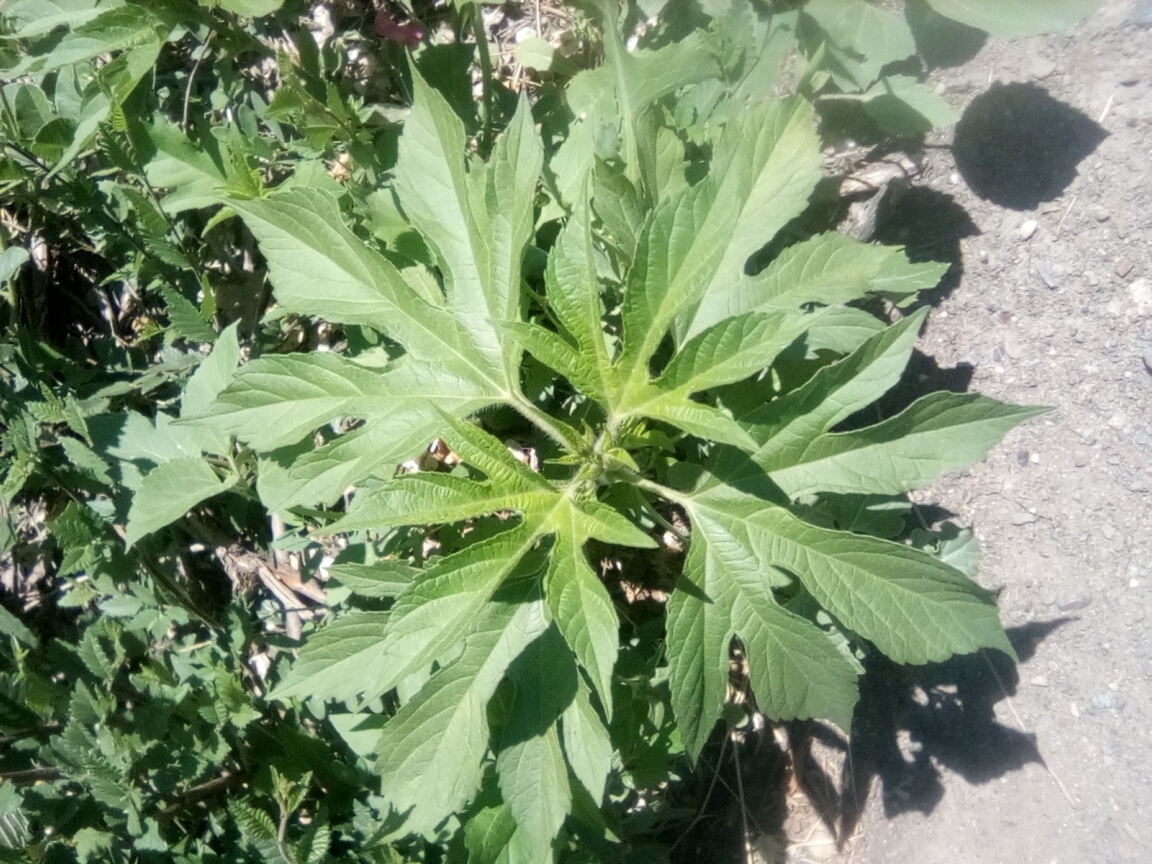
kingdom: Plantae
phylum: Tracheophyta
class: Magnoliopsida
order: Asterales
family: Asteraceae
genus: Ambrosia
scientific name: Ambrosia trifida
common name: Giant ragweed
